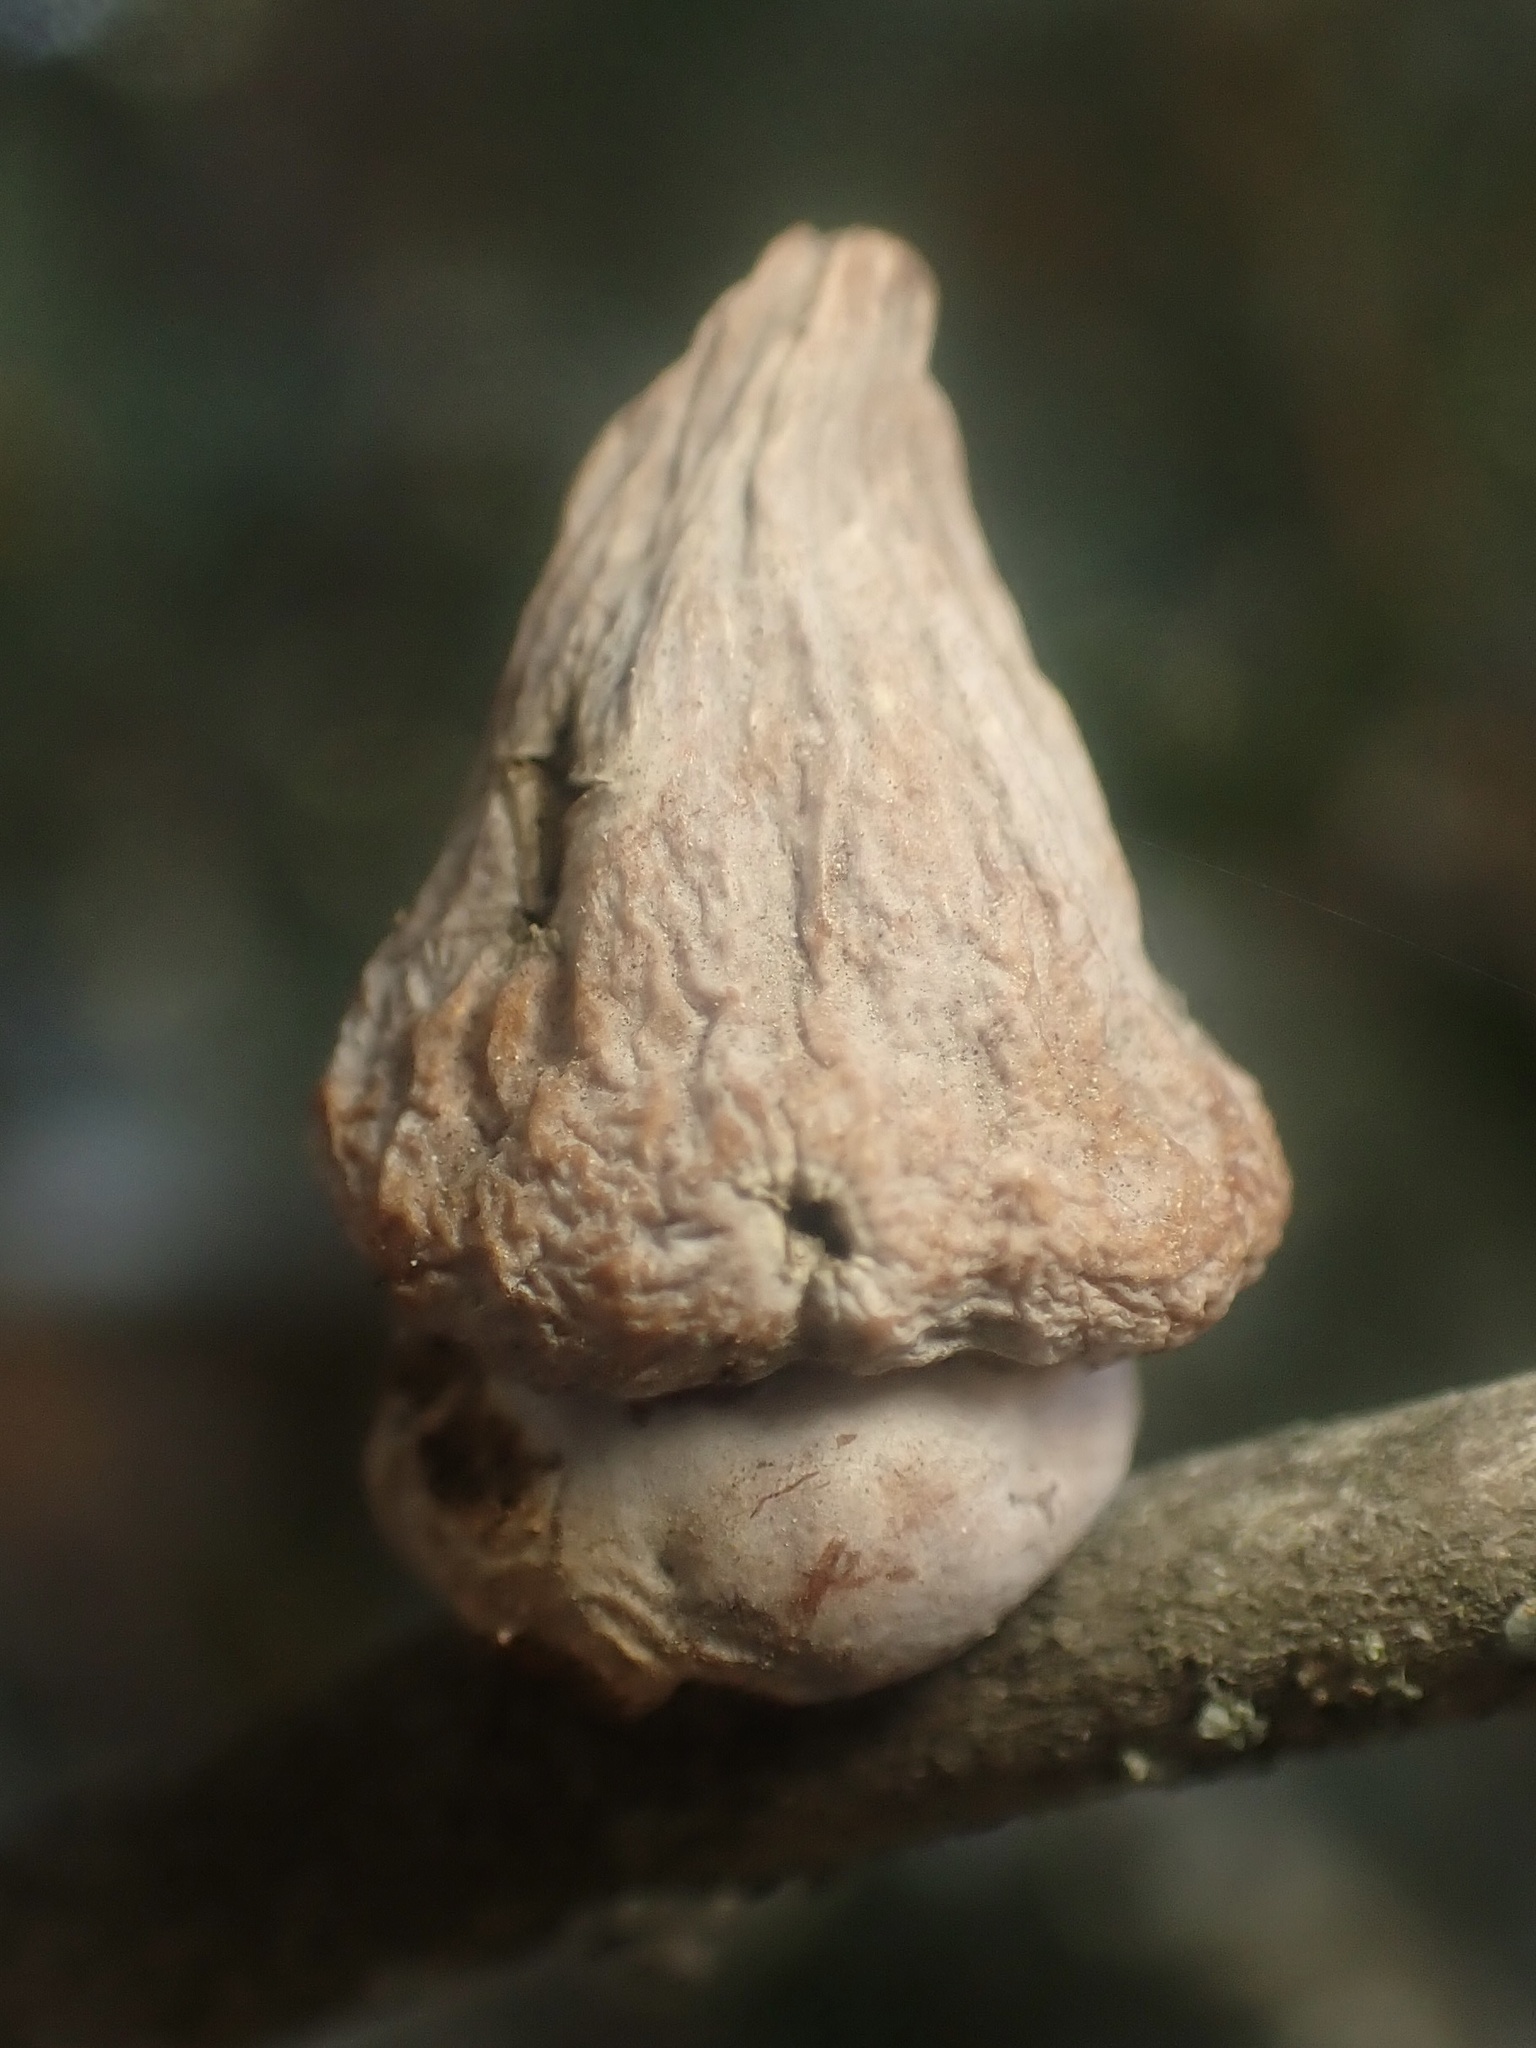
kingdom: Animalia
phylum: Arthropoda
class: Insecta
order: Hymenoptera
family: Cynipidae
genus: Heteroecus
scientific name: Heteroecus
